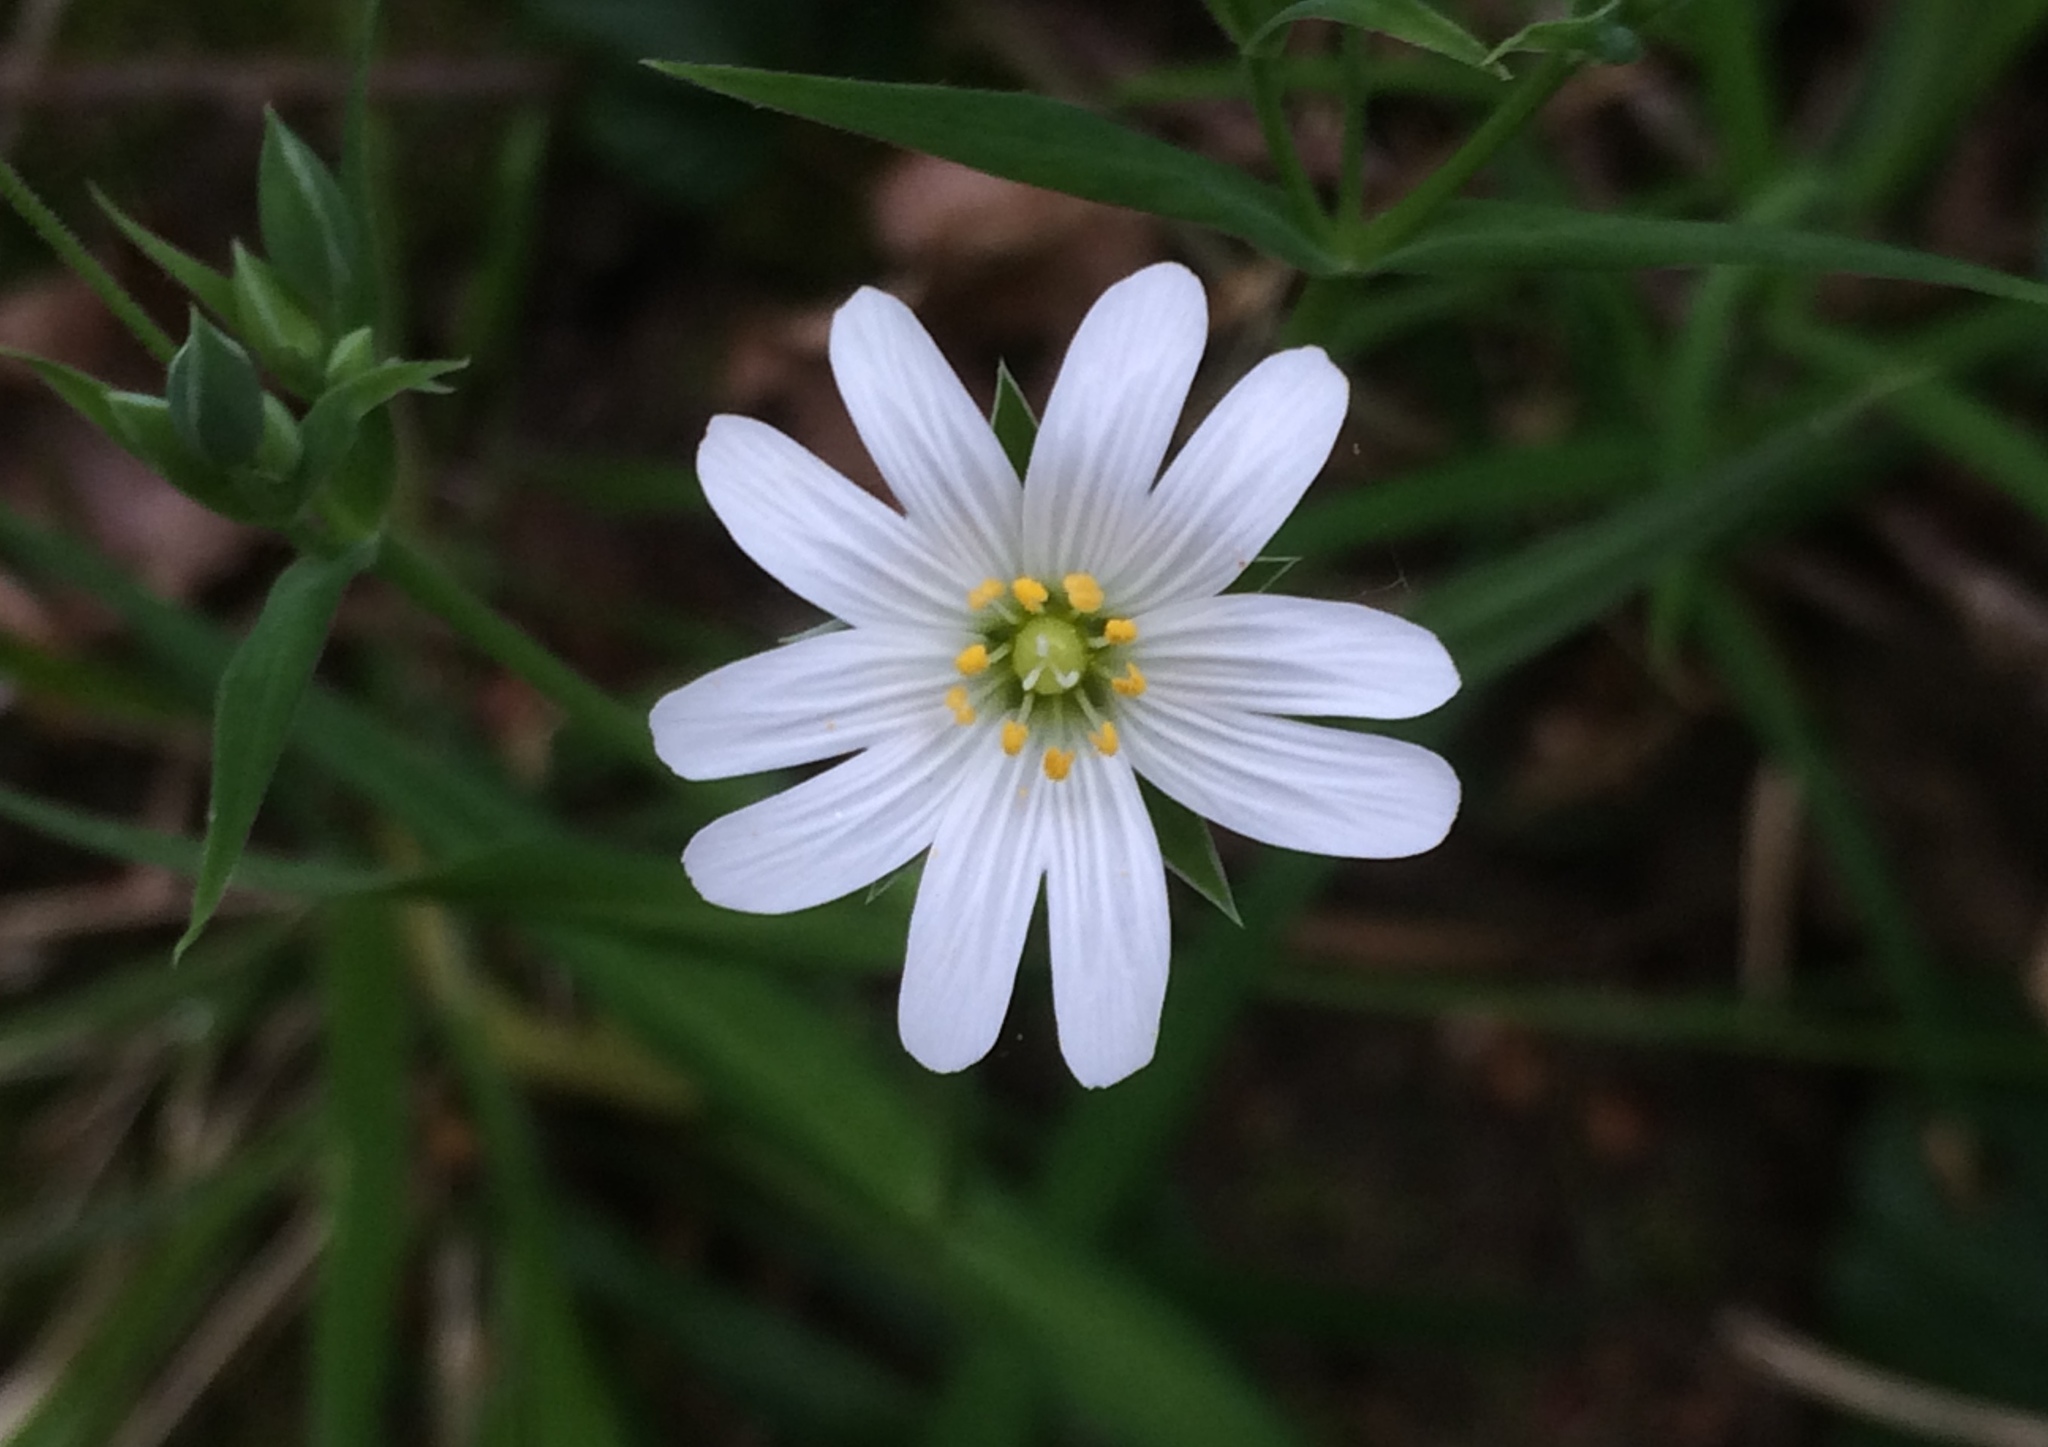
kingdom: Plantae
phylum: Tracheophyta
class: Magnoliopsida
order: Caryophyllales
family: Caryophyllaceae
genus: Rabelera
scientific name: Rabelera holostea
